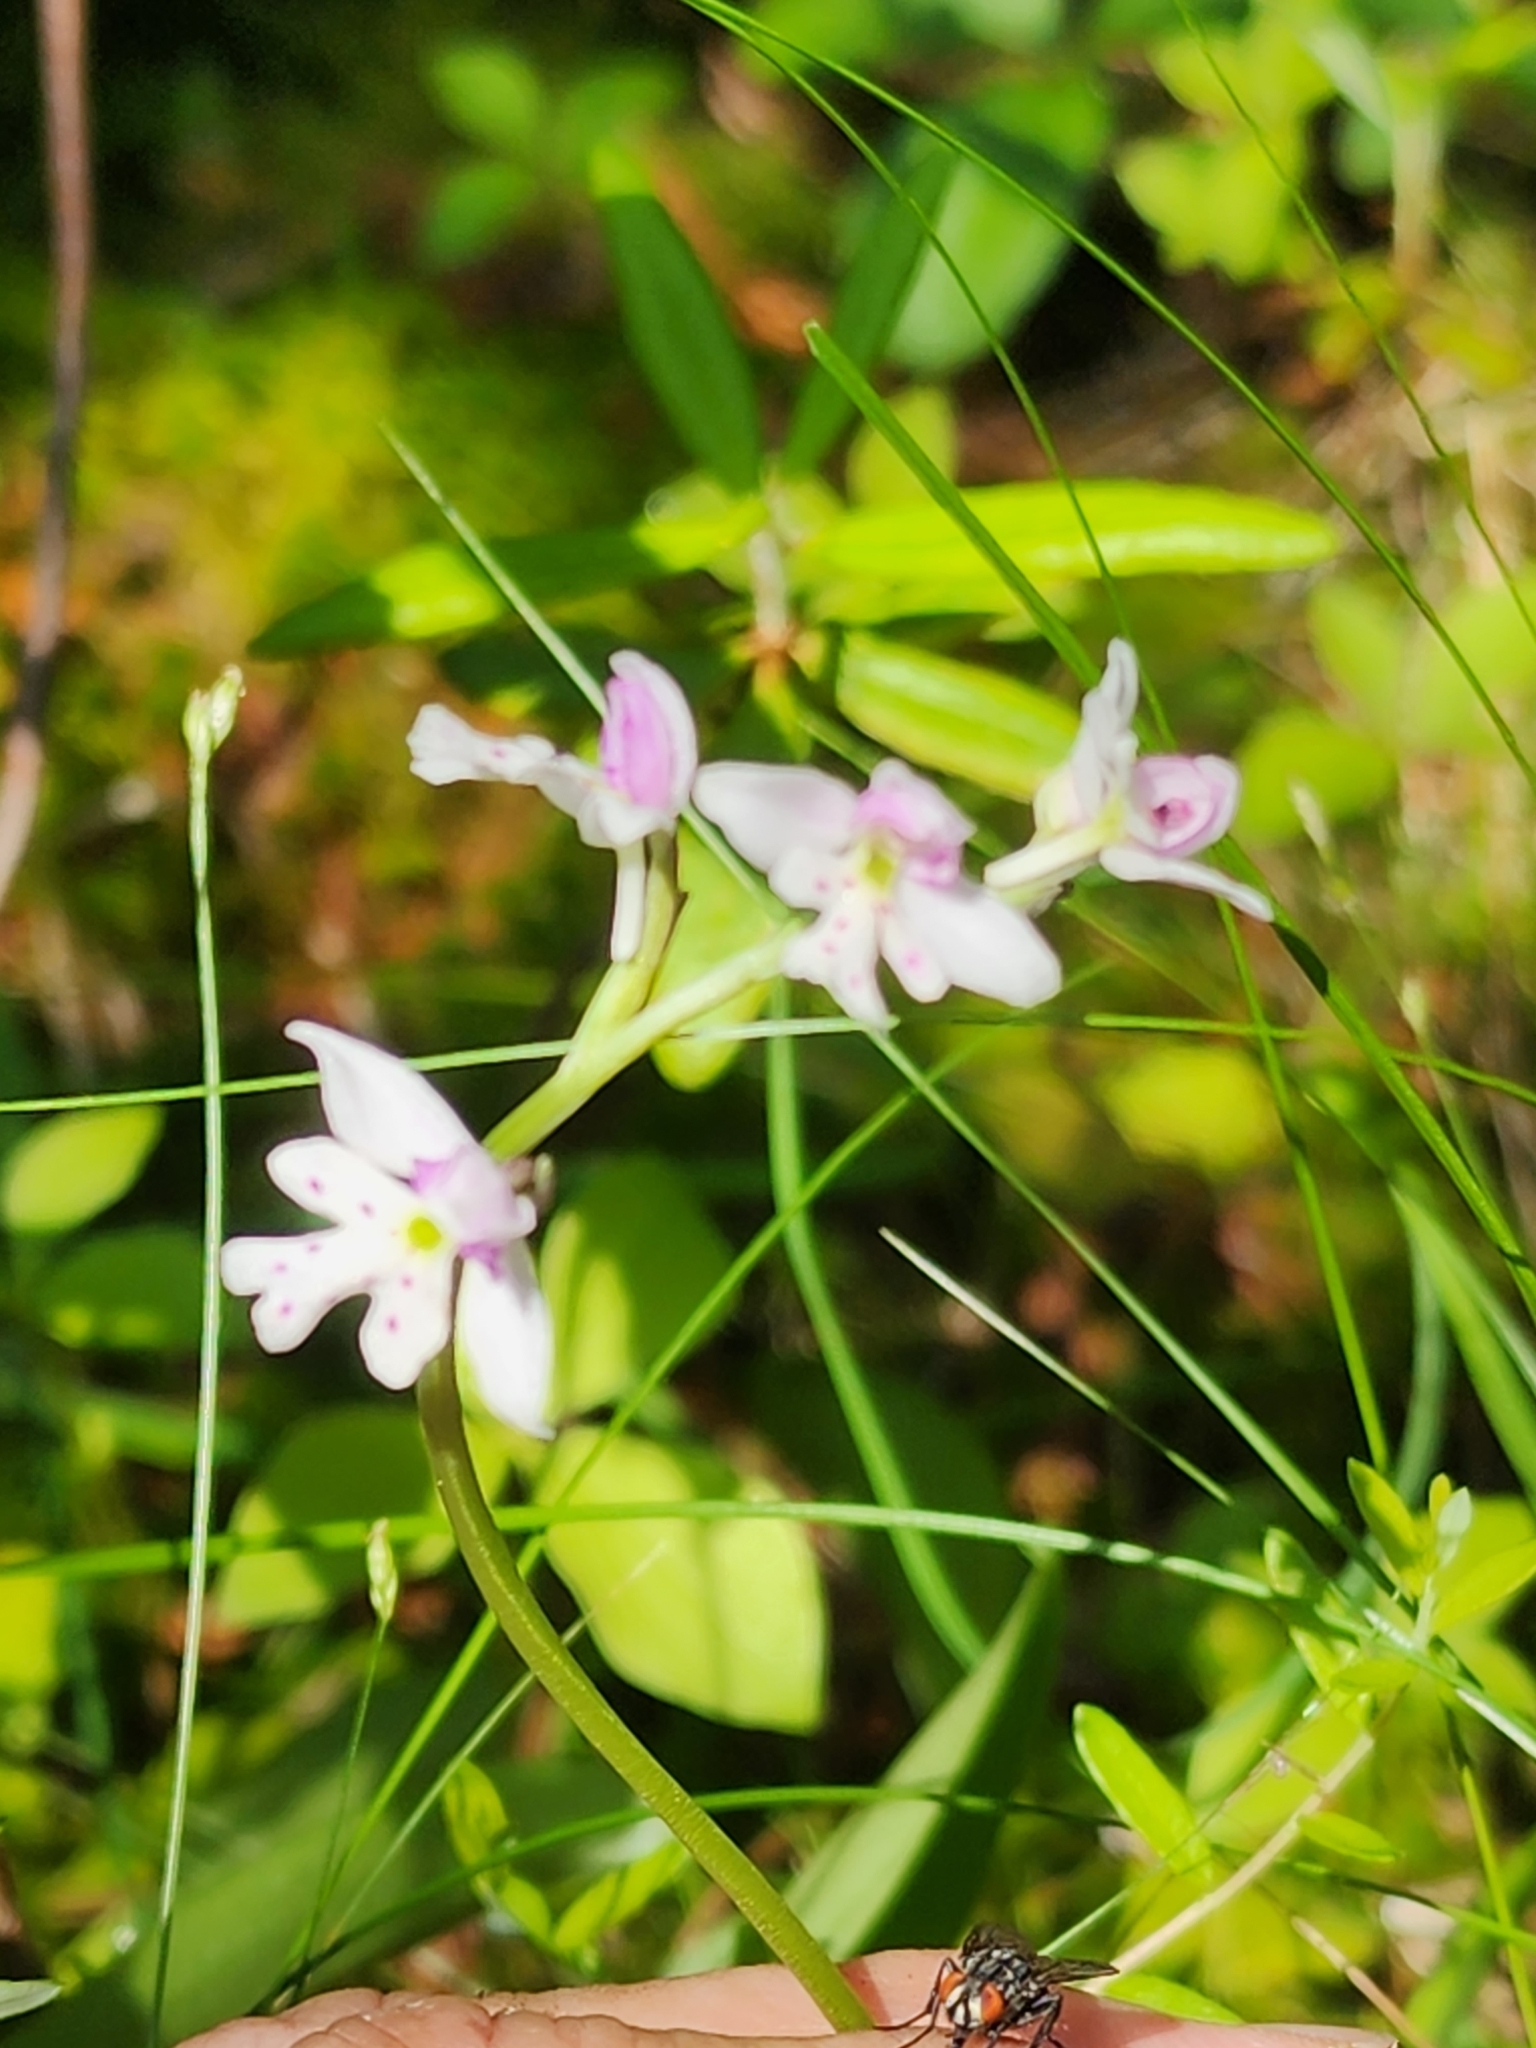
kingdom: Plantae
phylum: Tracheophyta
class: Liliopsida
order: Asparagales
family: Orchidaceae
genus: Galearis
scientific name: Galearis rotundifolia
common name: One-leaved orchis
